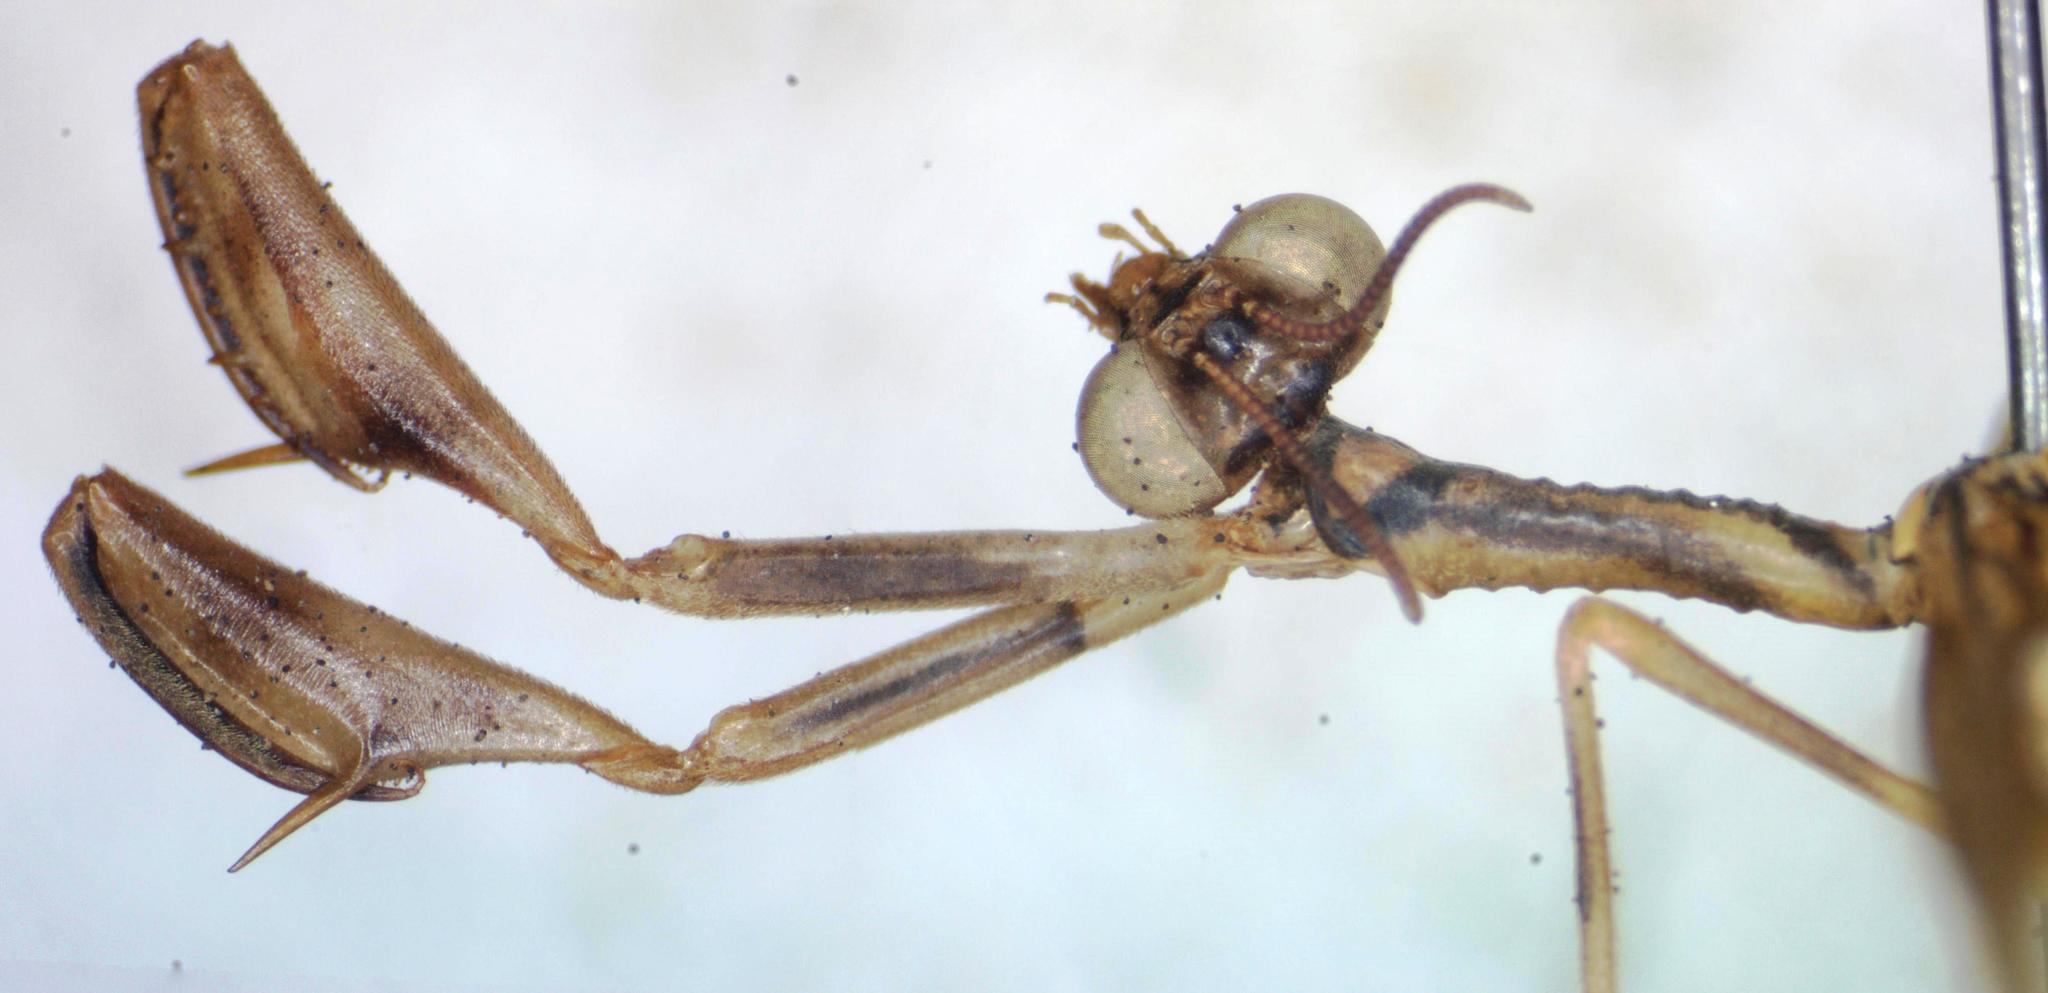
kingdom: Animalia
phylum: Arthropoda
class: Insecta
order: Neuroptera
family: Mantispidae
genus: Entanoneura
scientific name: Entanoneura batesella
